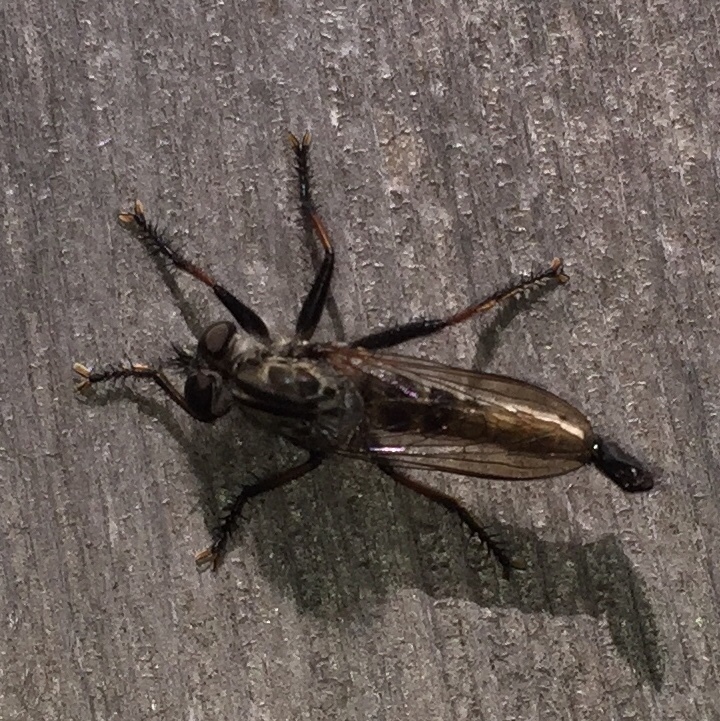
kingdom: Animalia
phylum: Arthropoda
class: Insecta
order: Diptera
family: Asilidae
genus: Efferia
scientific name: Efferia aestuans
